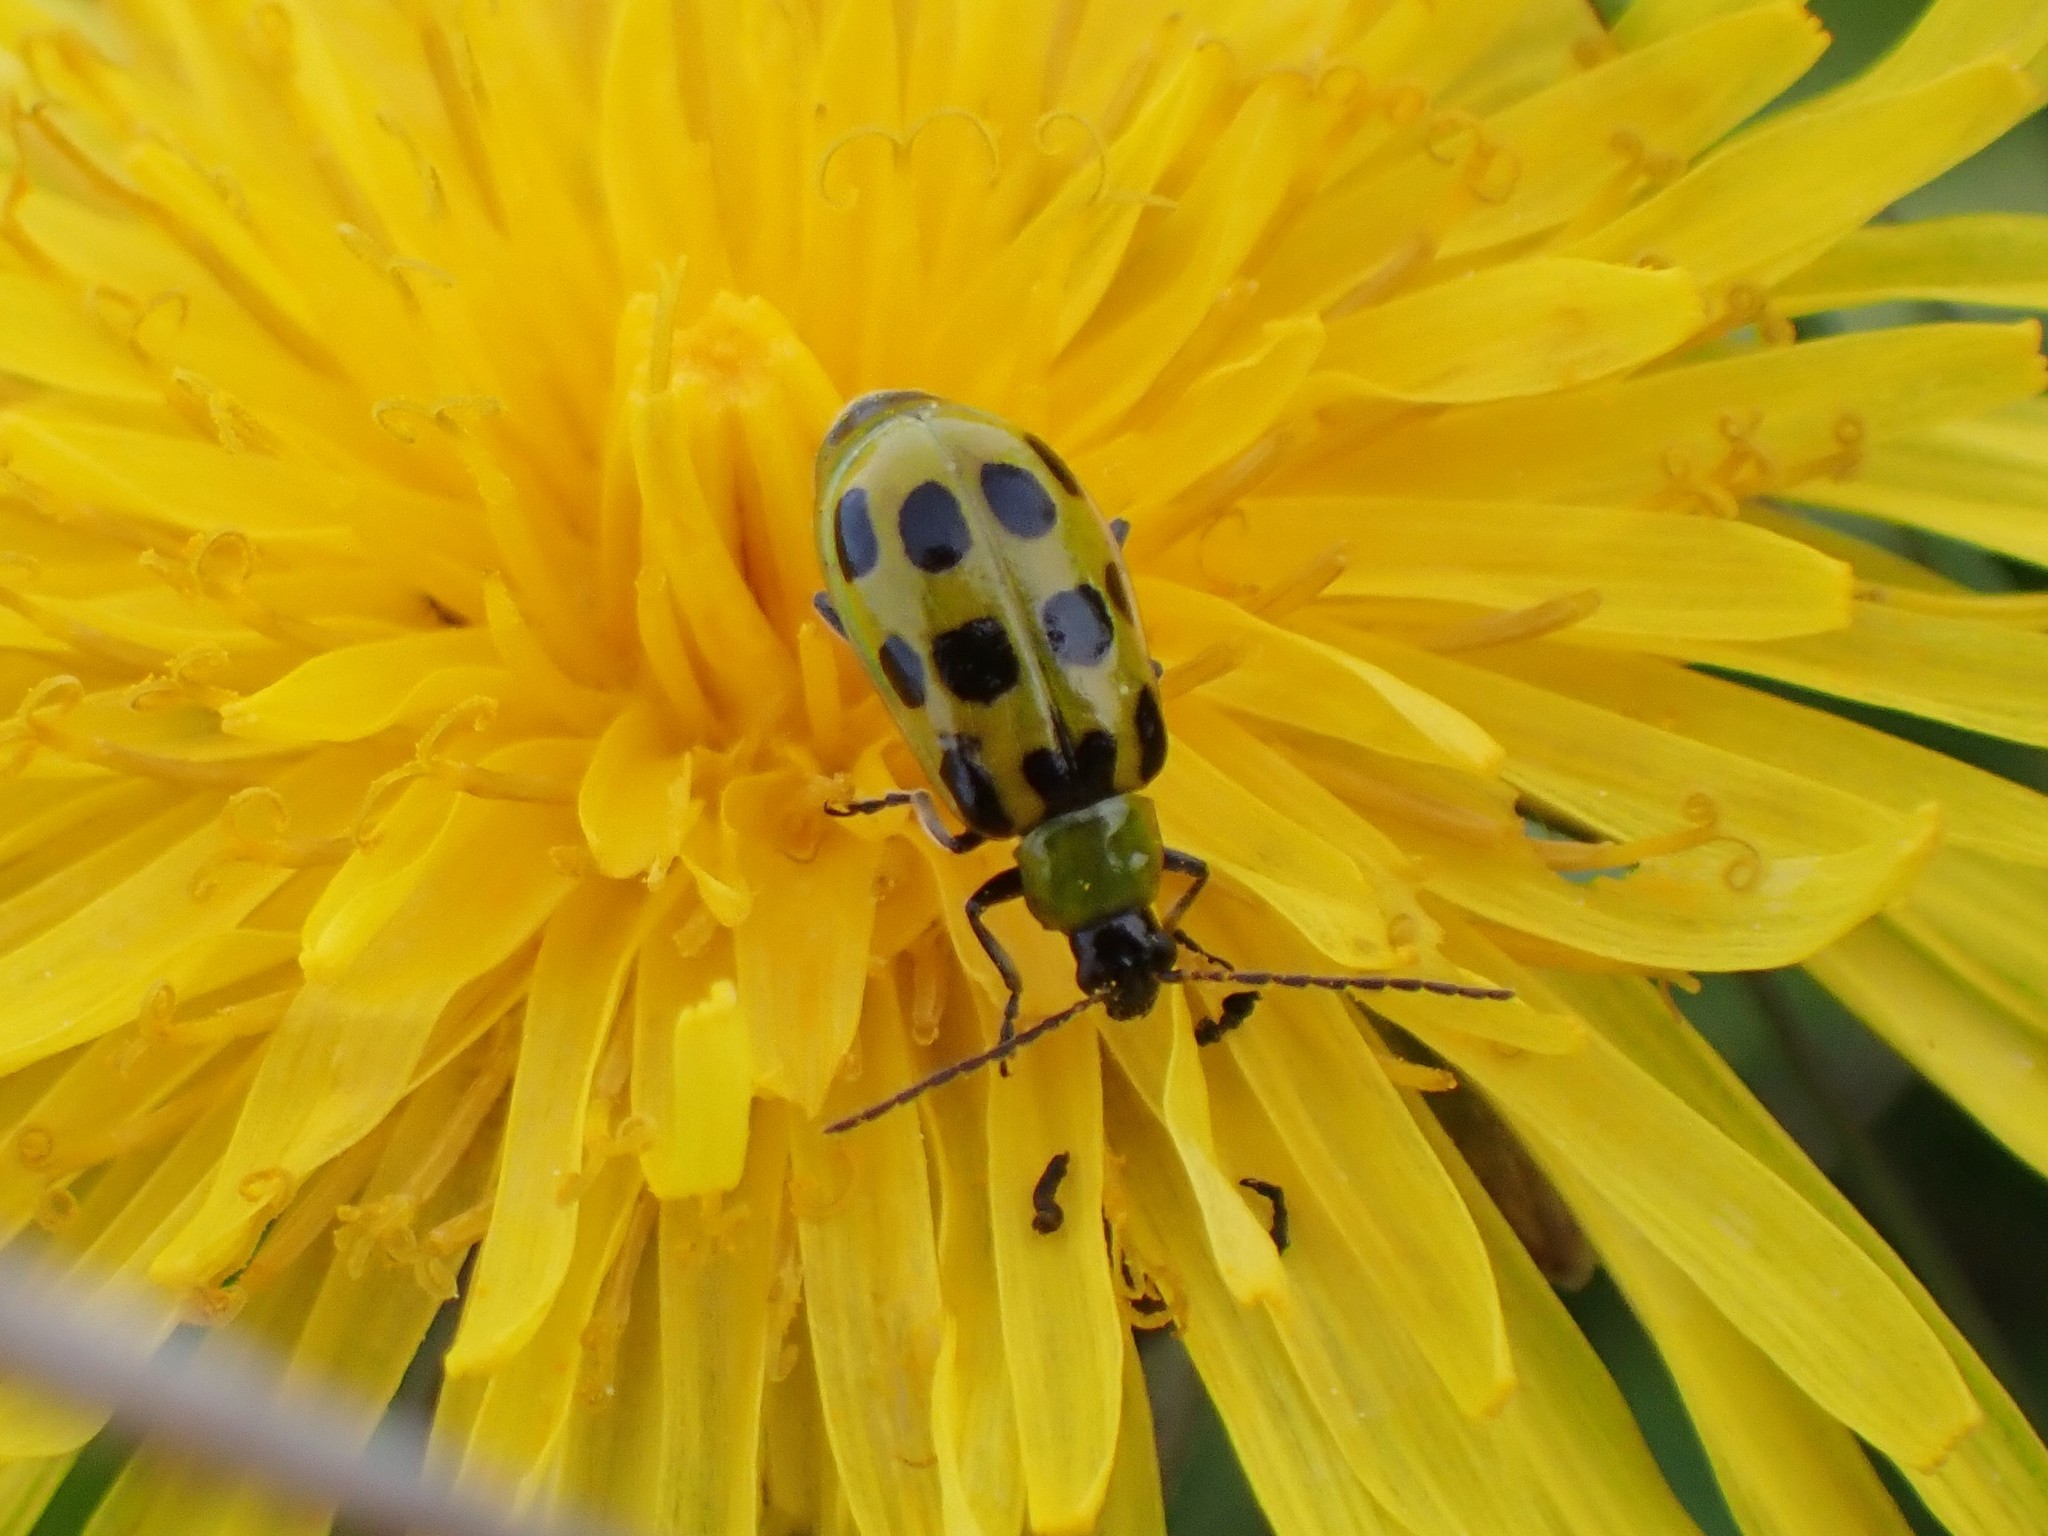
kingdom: Animalia
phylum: Arthropoda
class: Insecta
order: Coleoptera
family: Chrysomelidae
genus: Diabrotica
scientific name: Diabrotica undecimpunctata
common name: Spotted cucumber beetle
